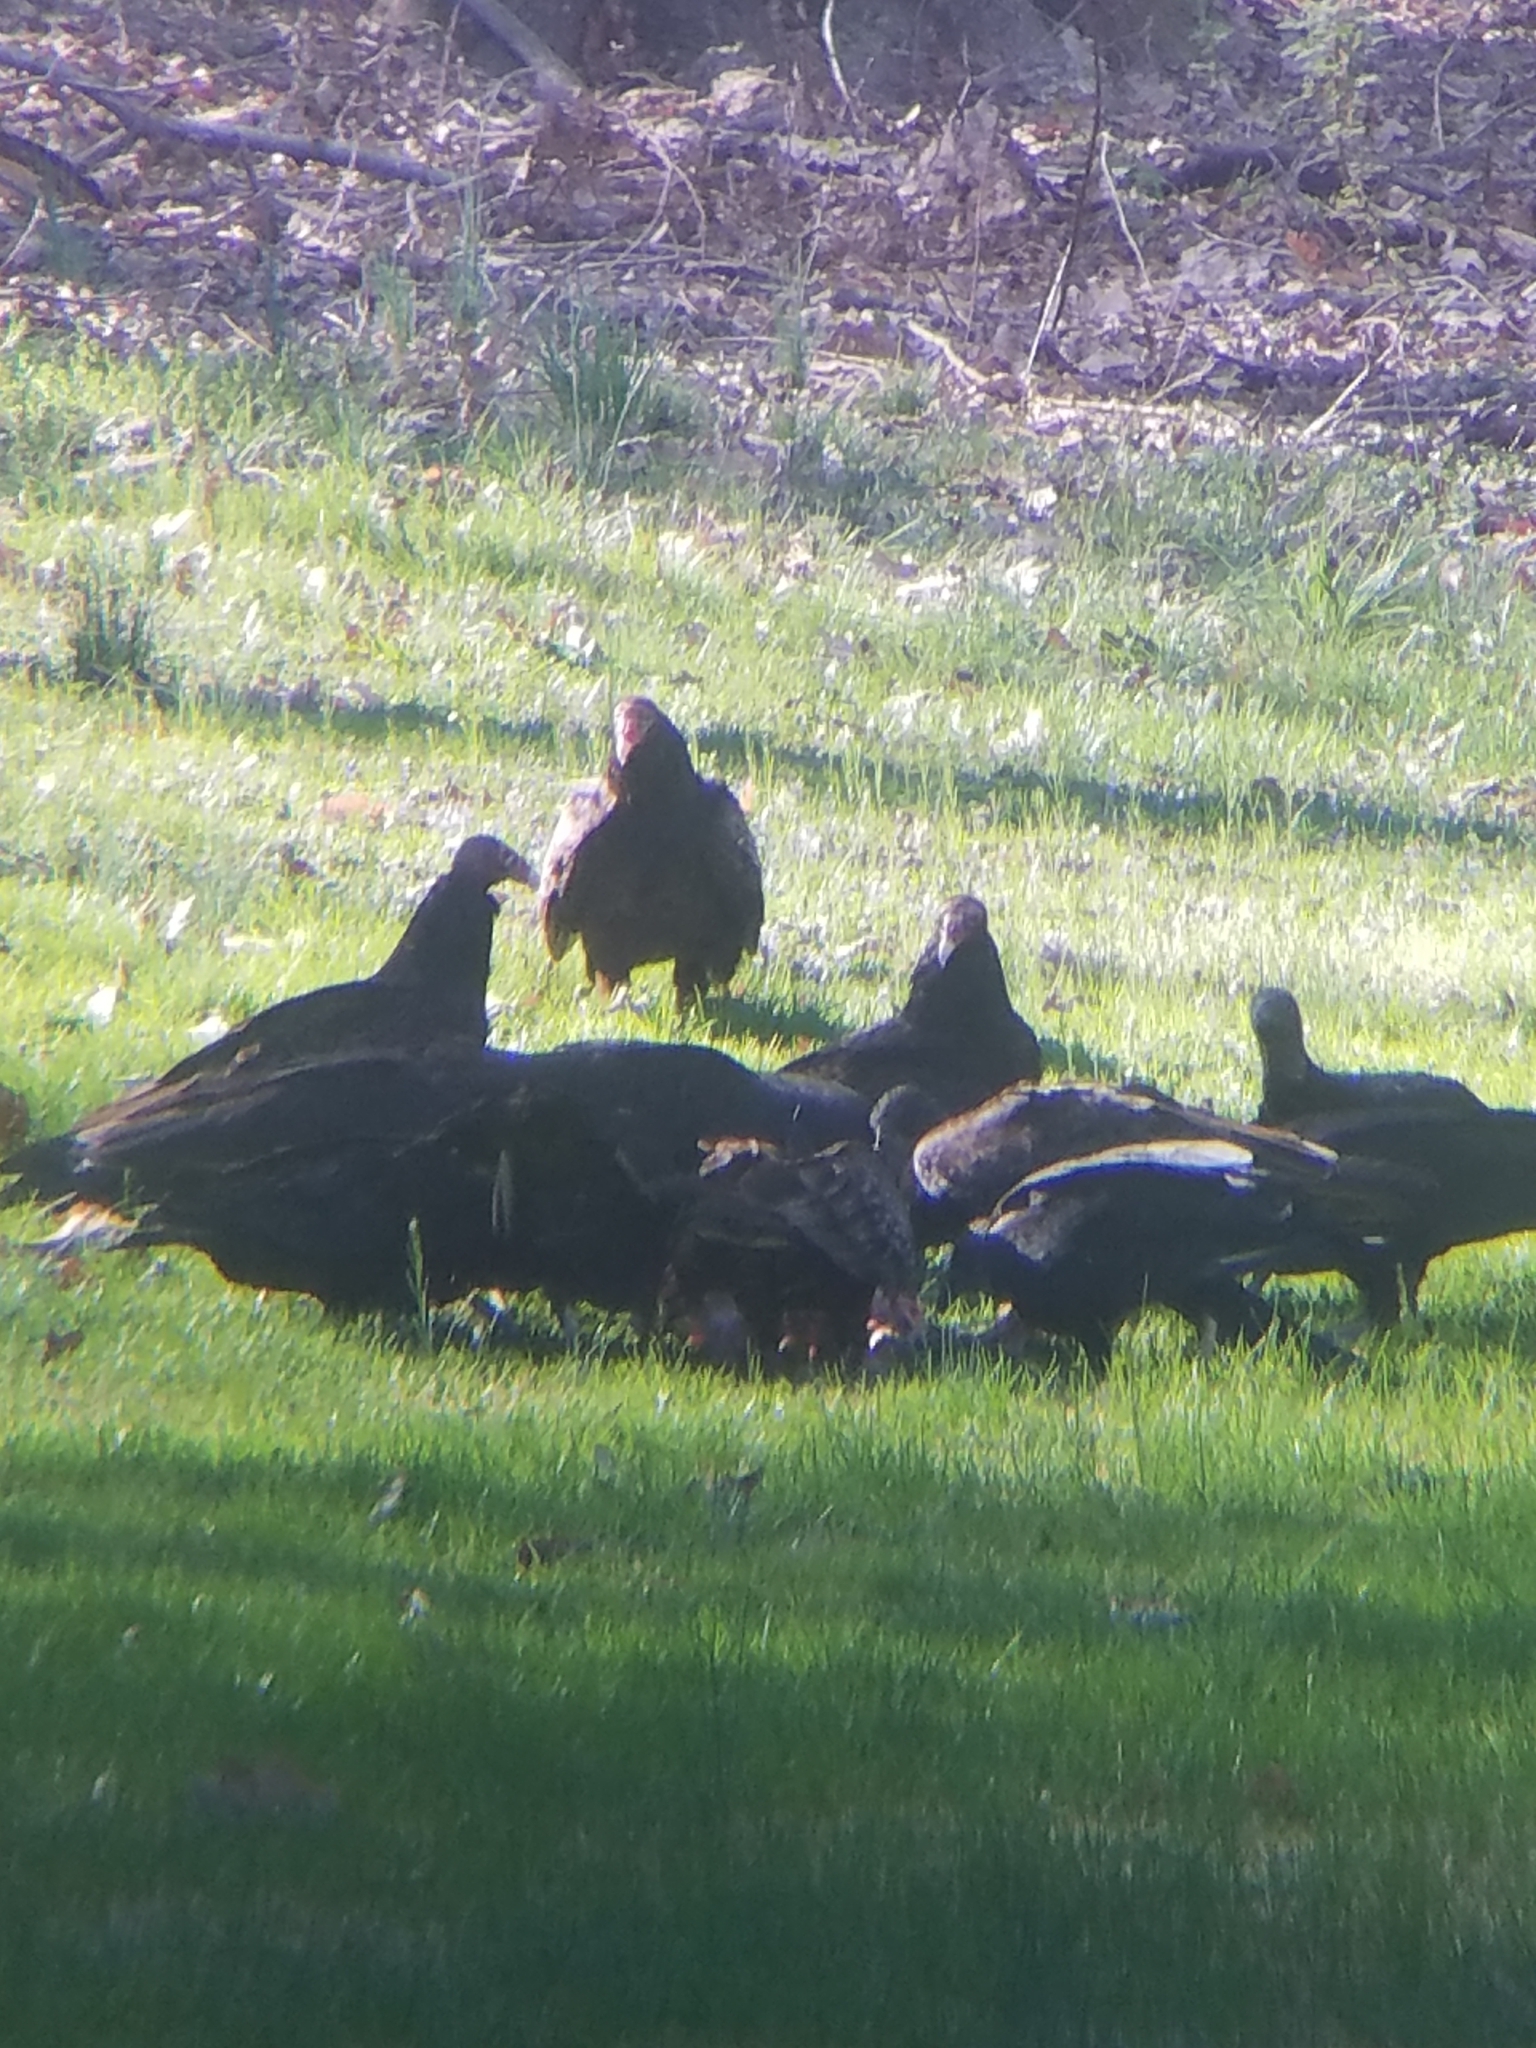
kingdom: Animalia
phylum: Chordata
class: Aves
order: Accipitriformes
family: Cathartidae
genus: Coragyps
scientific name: Coragyps atratus
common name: Black vulture
